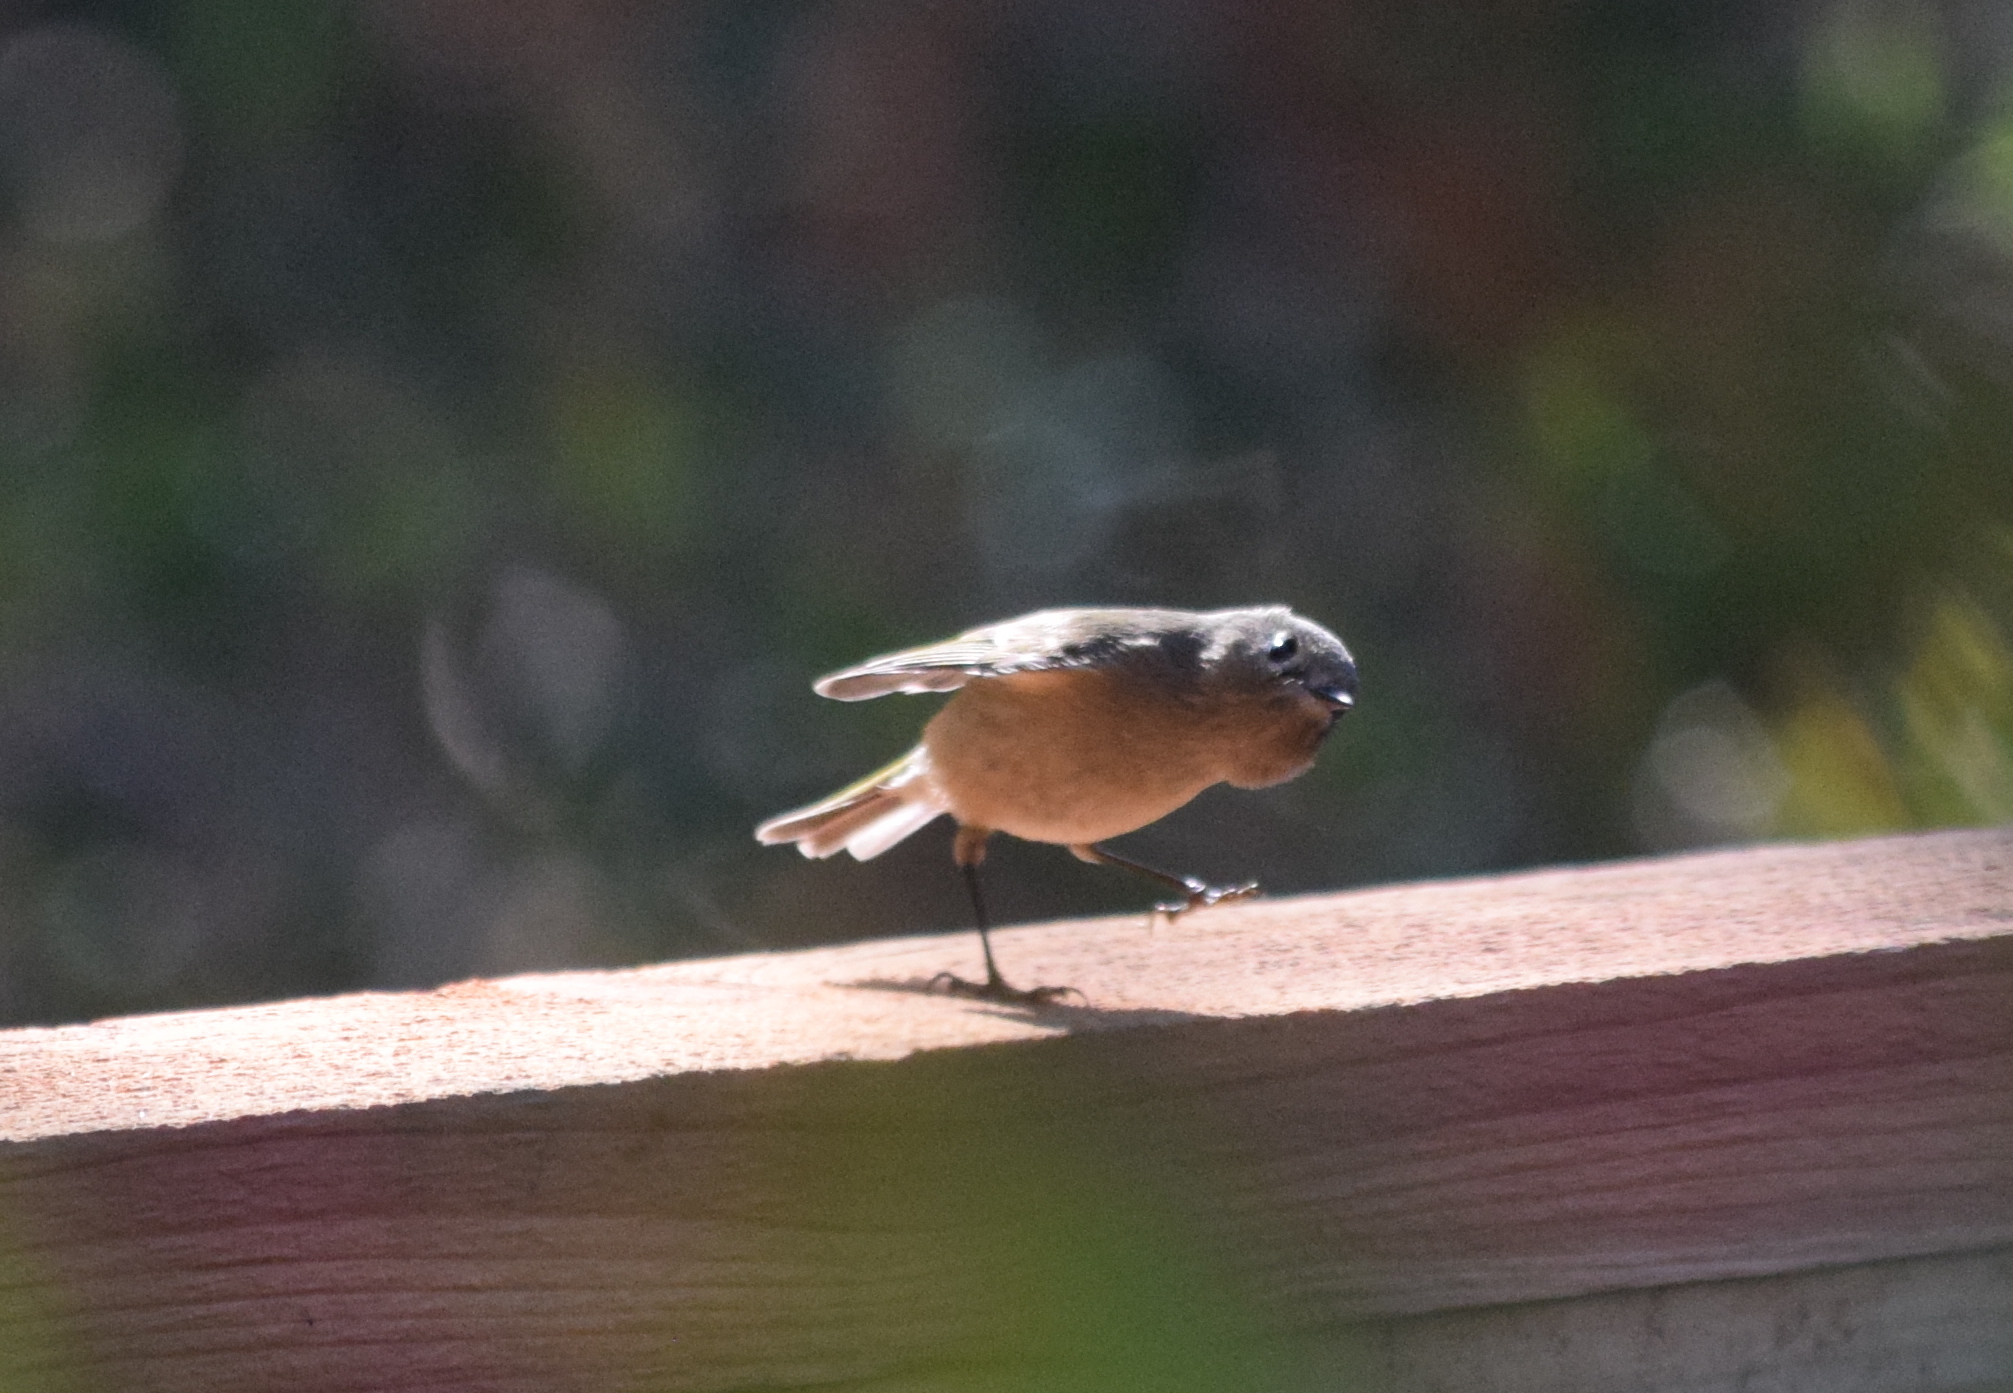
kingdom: Animalia
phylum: Chordata
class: Aves
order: Passeriformes
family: Regulidae
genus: Regulus
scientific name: Regulus calendula
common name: Ruby-crowned kinglet
